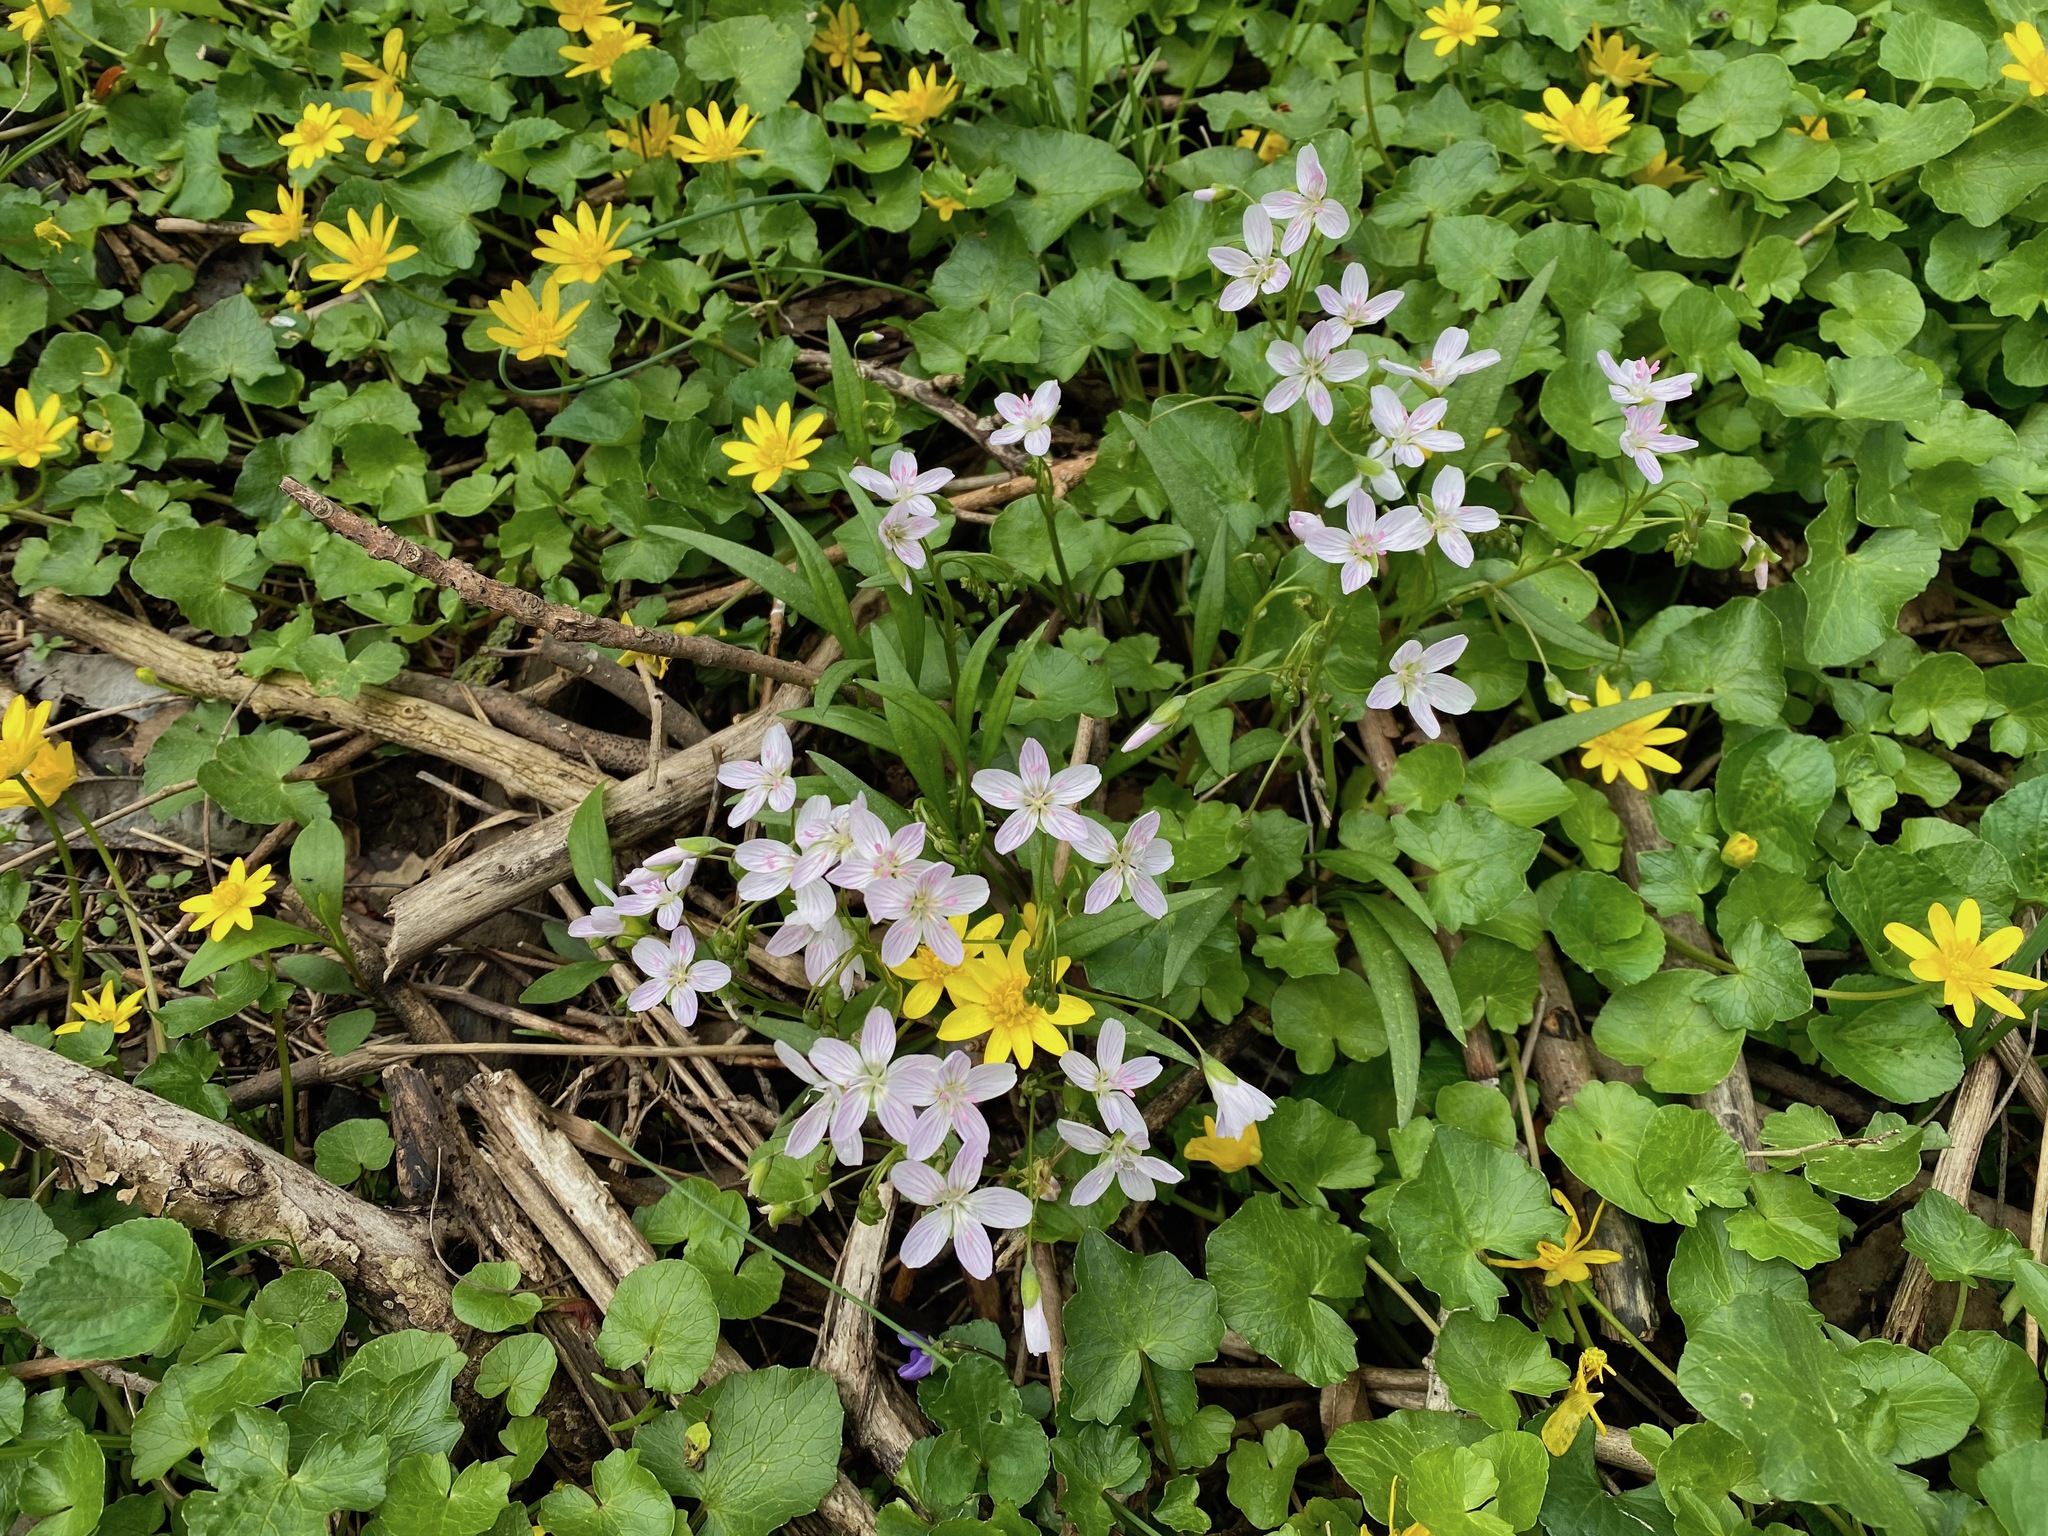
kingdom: Plantae
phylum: Tracheophyta
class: Magnoliopsida
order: Caryophyllales
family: Montiaceae
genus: Claytonia
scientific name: Claytonia virginica
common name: Virginia springbeauty
